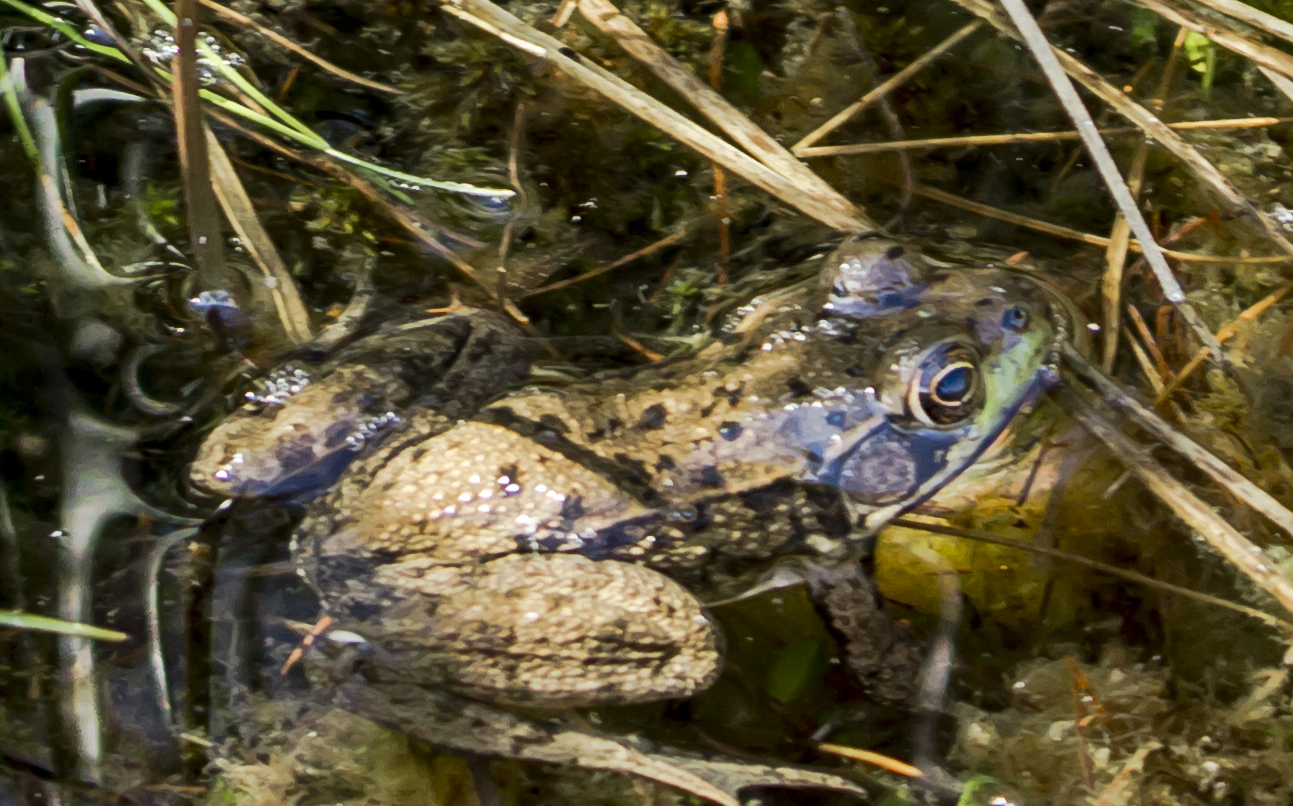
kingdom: Animalia
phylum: Chordata
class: Amphibia
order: Anura
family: Ranidae
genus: Lithobates
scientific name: Lithobates clamitans
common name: Green frog
